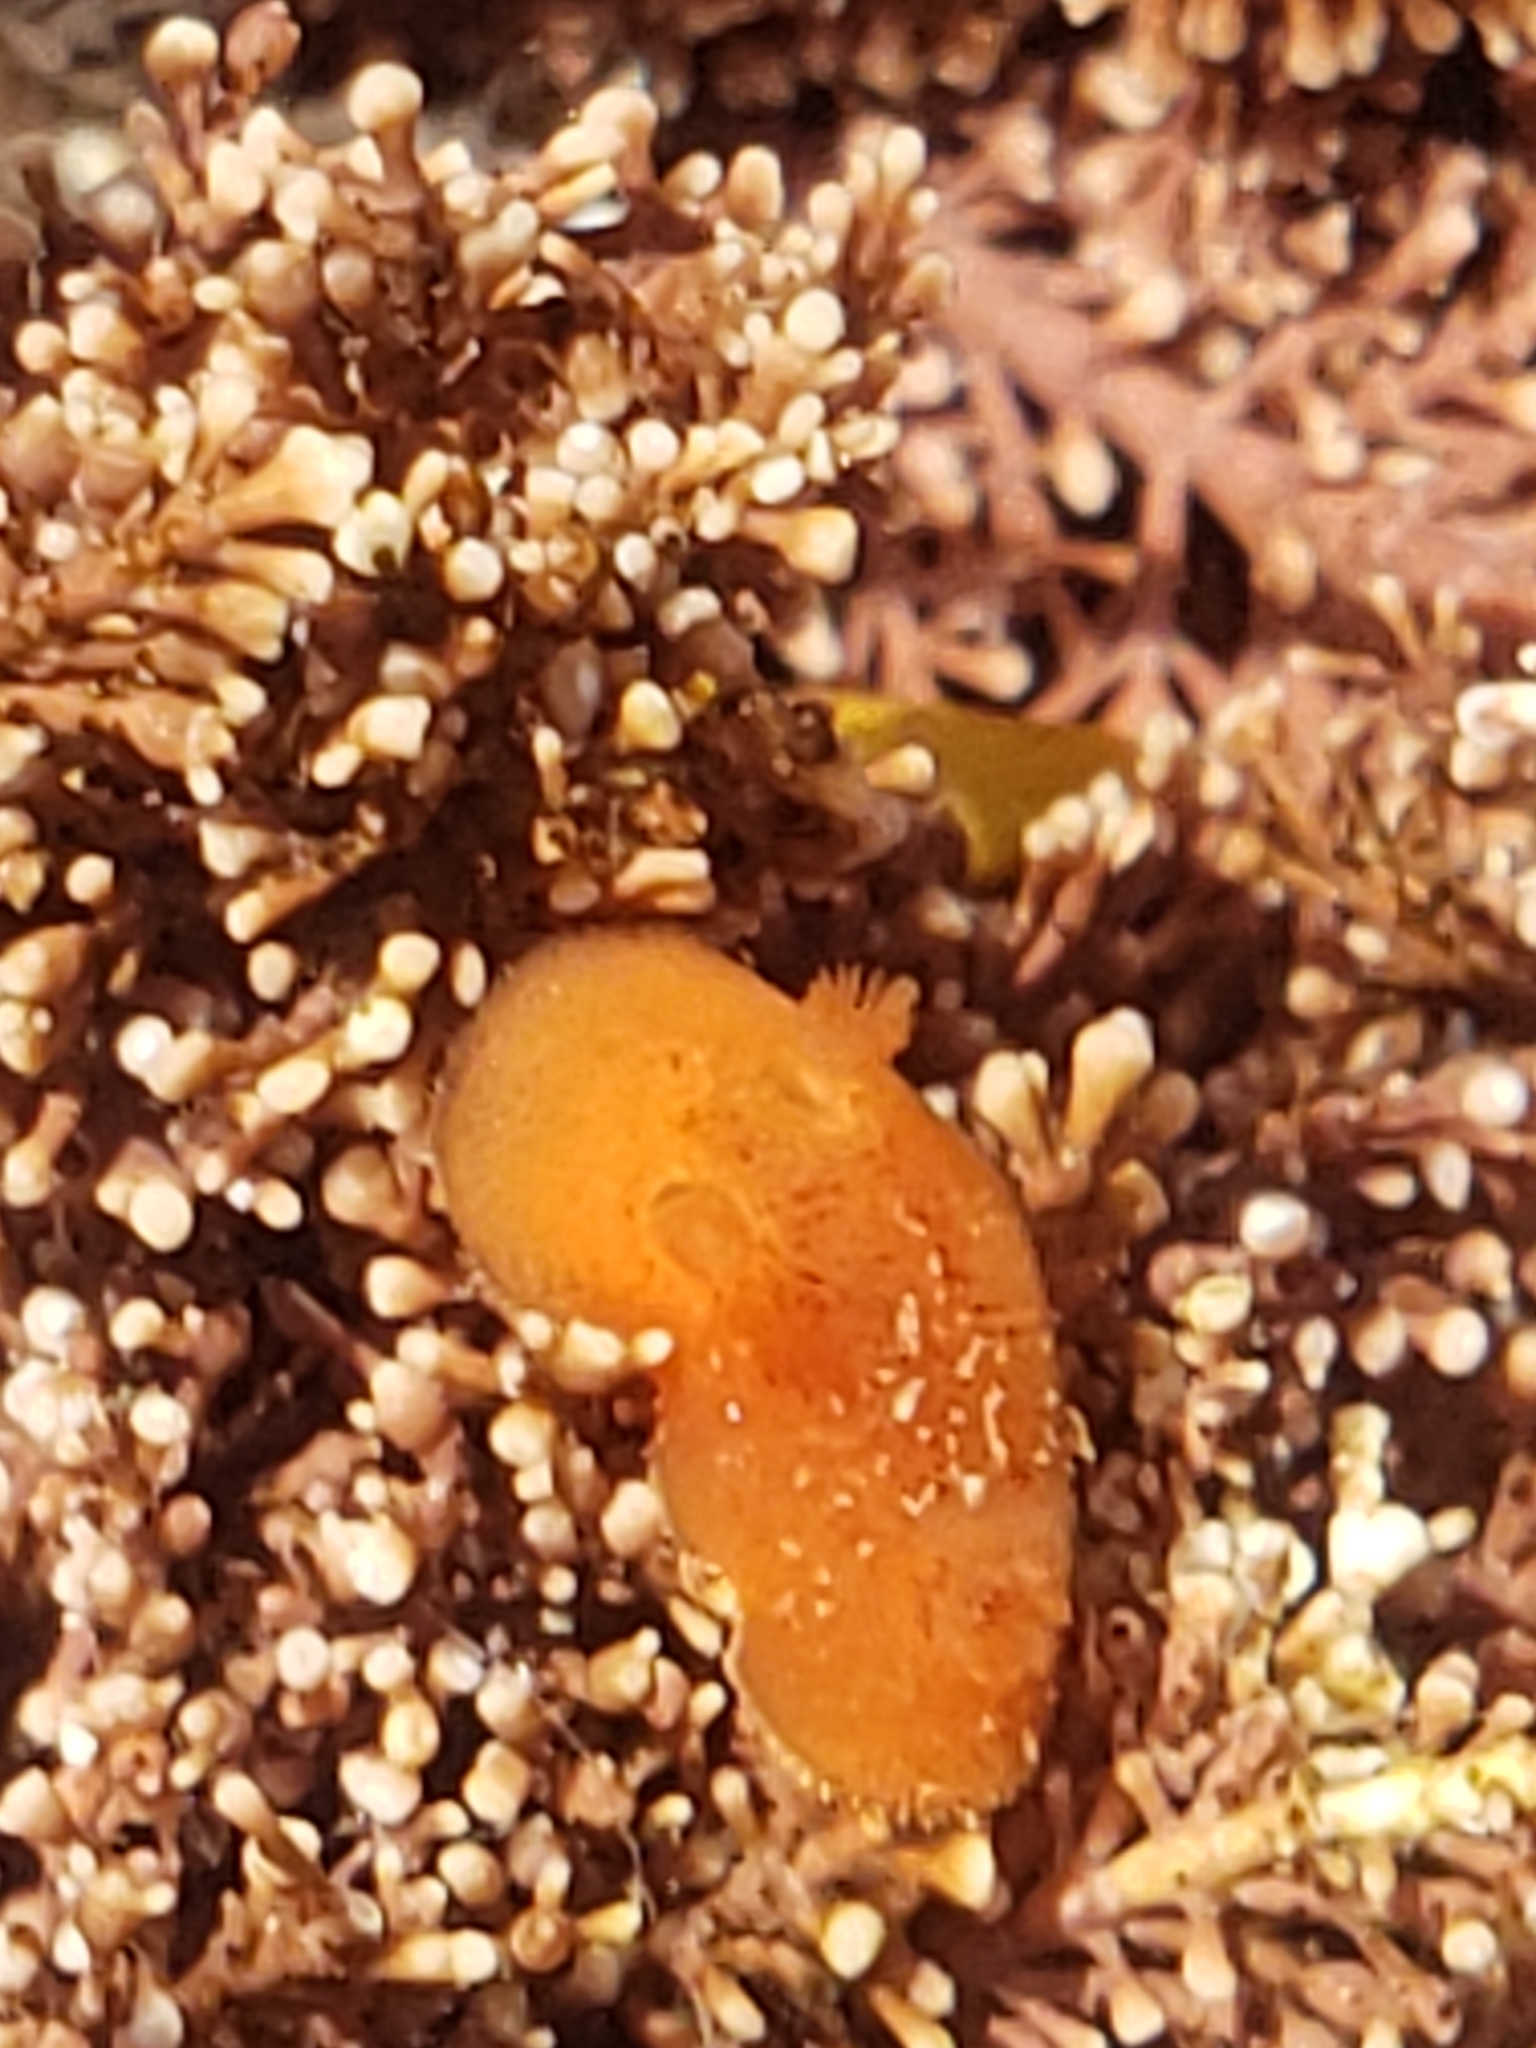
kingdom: Animalia
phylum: Mollusca
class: Gastropoda
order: Nudibranchia
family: Discodorididae
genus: Rostanga
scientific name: Rostanga pulchra
